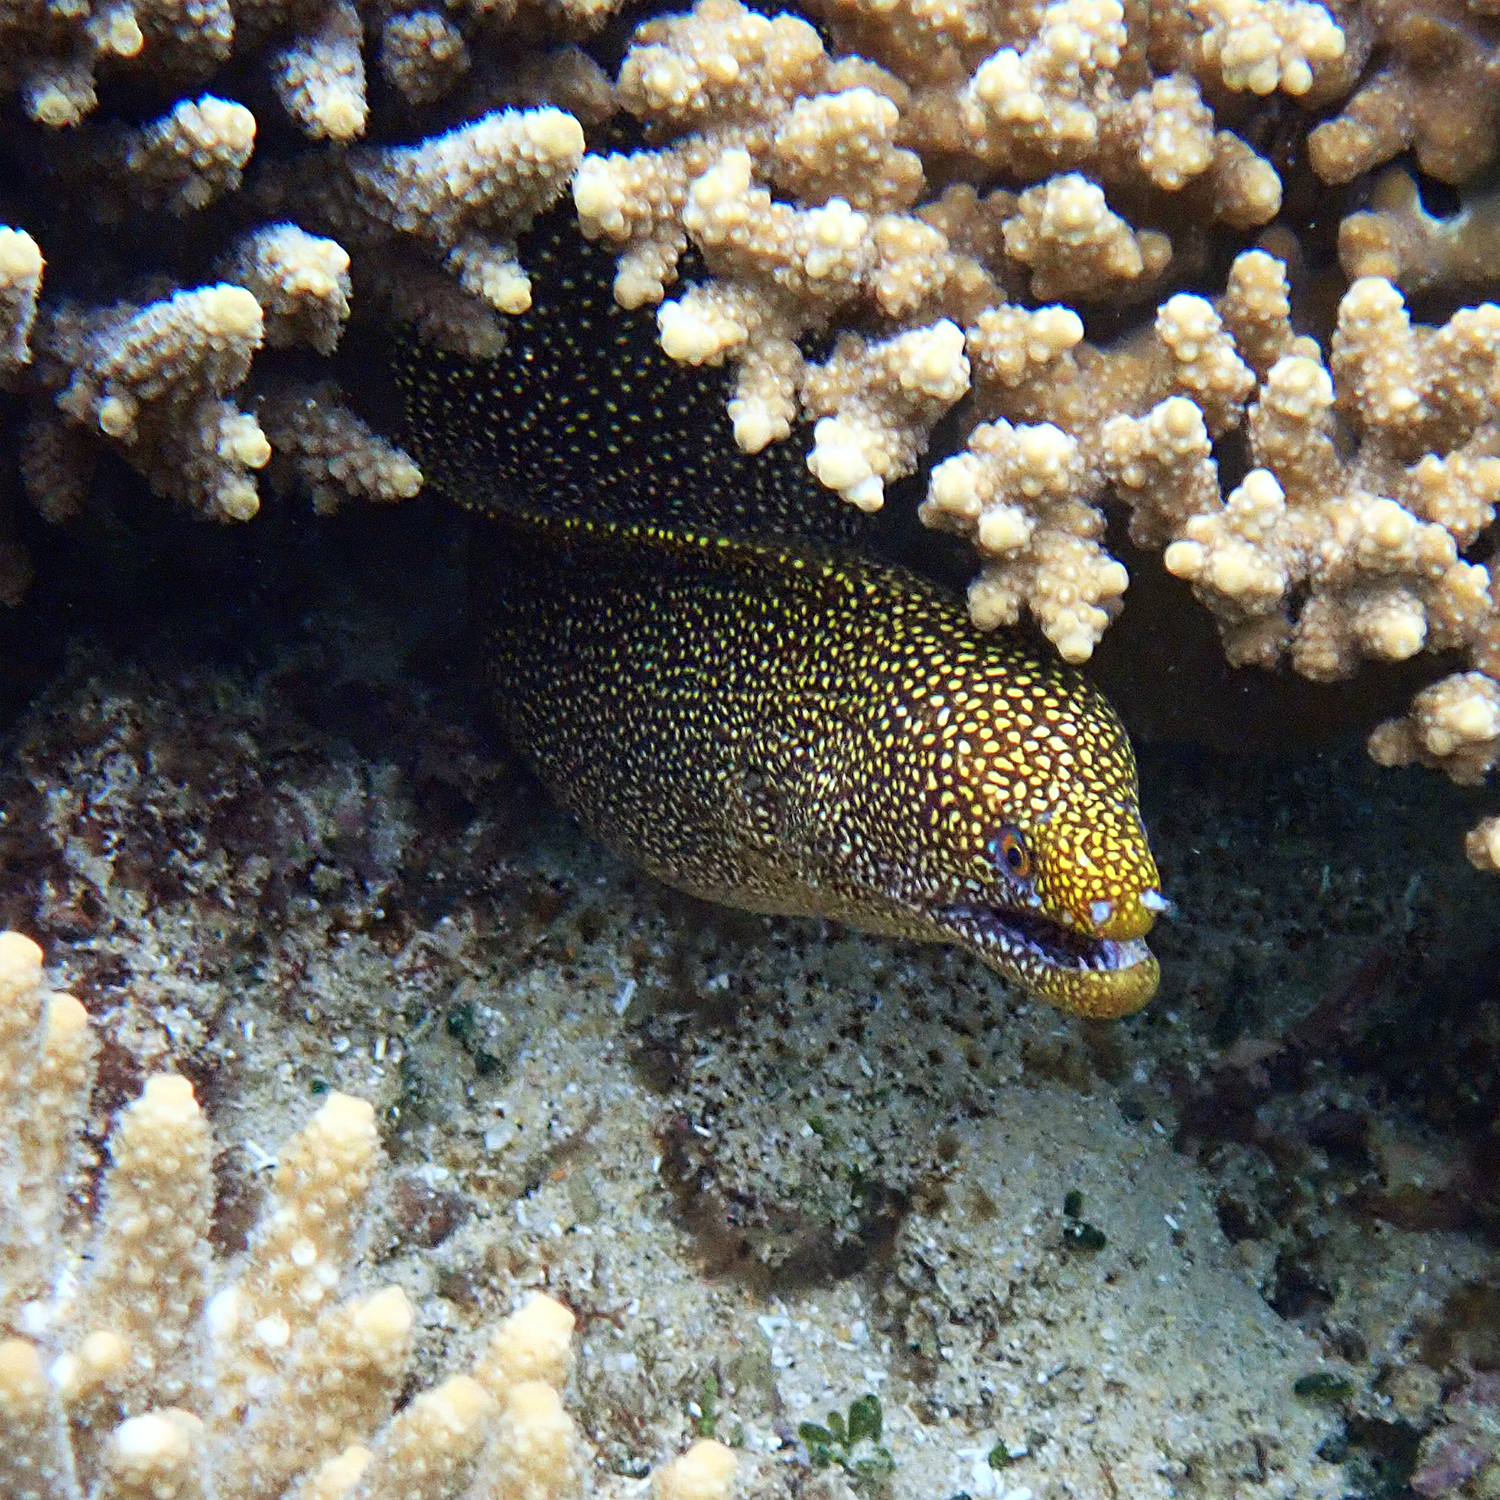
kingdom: Animalia
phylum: Chordata
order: Anguilliformes
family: Muraenidae
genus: Gymnothorax
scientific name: Gymnothorax eurostus
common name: Stout moray
